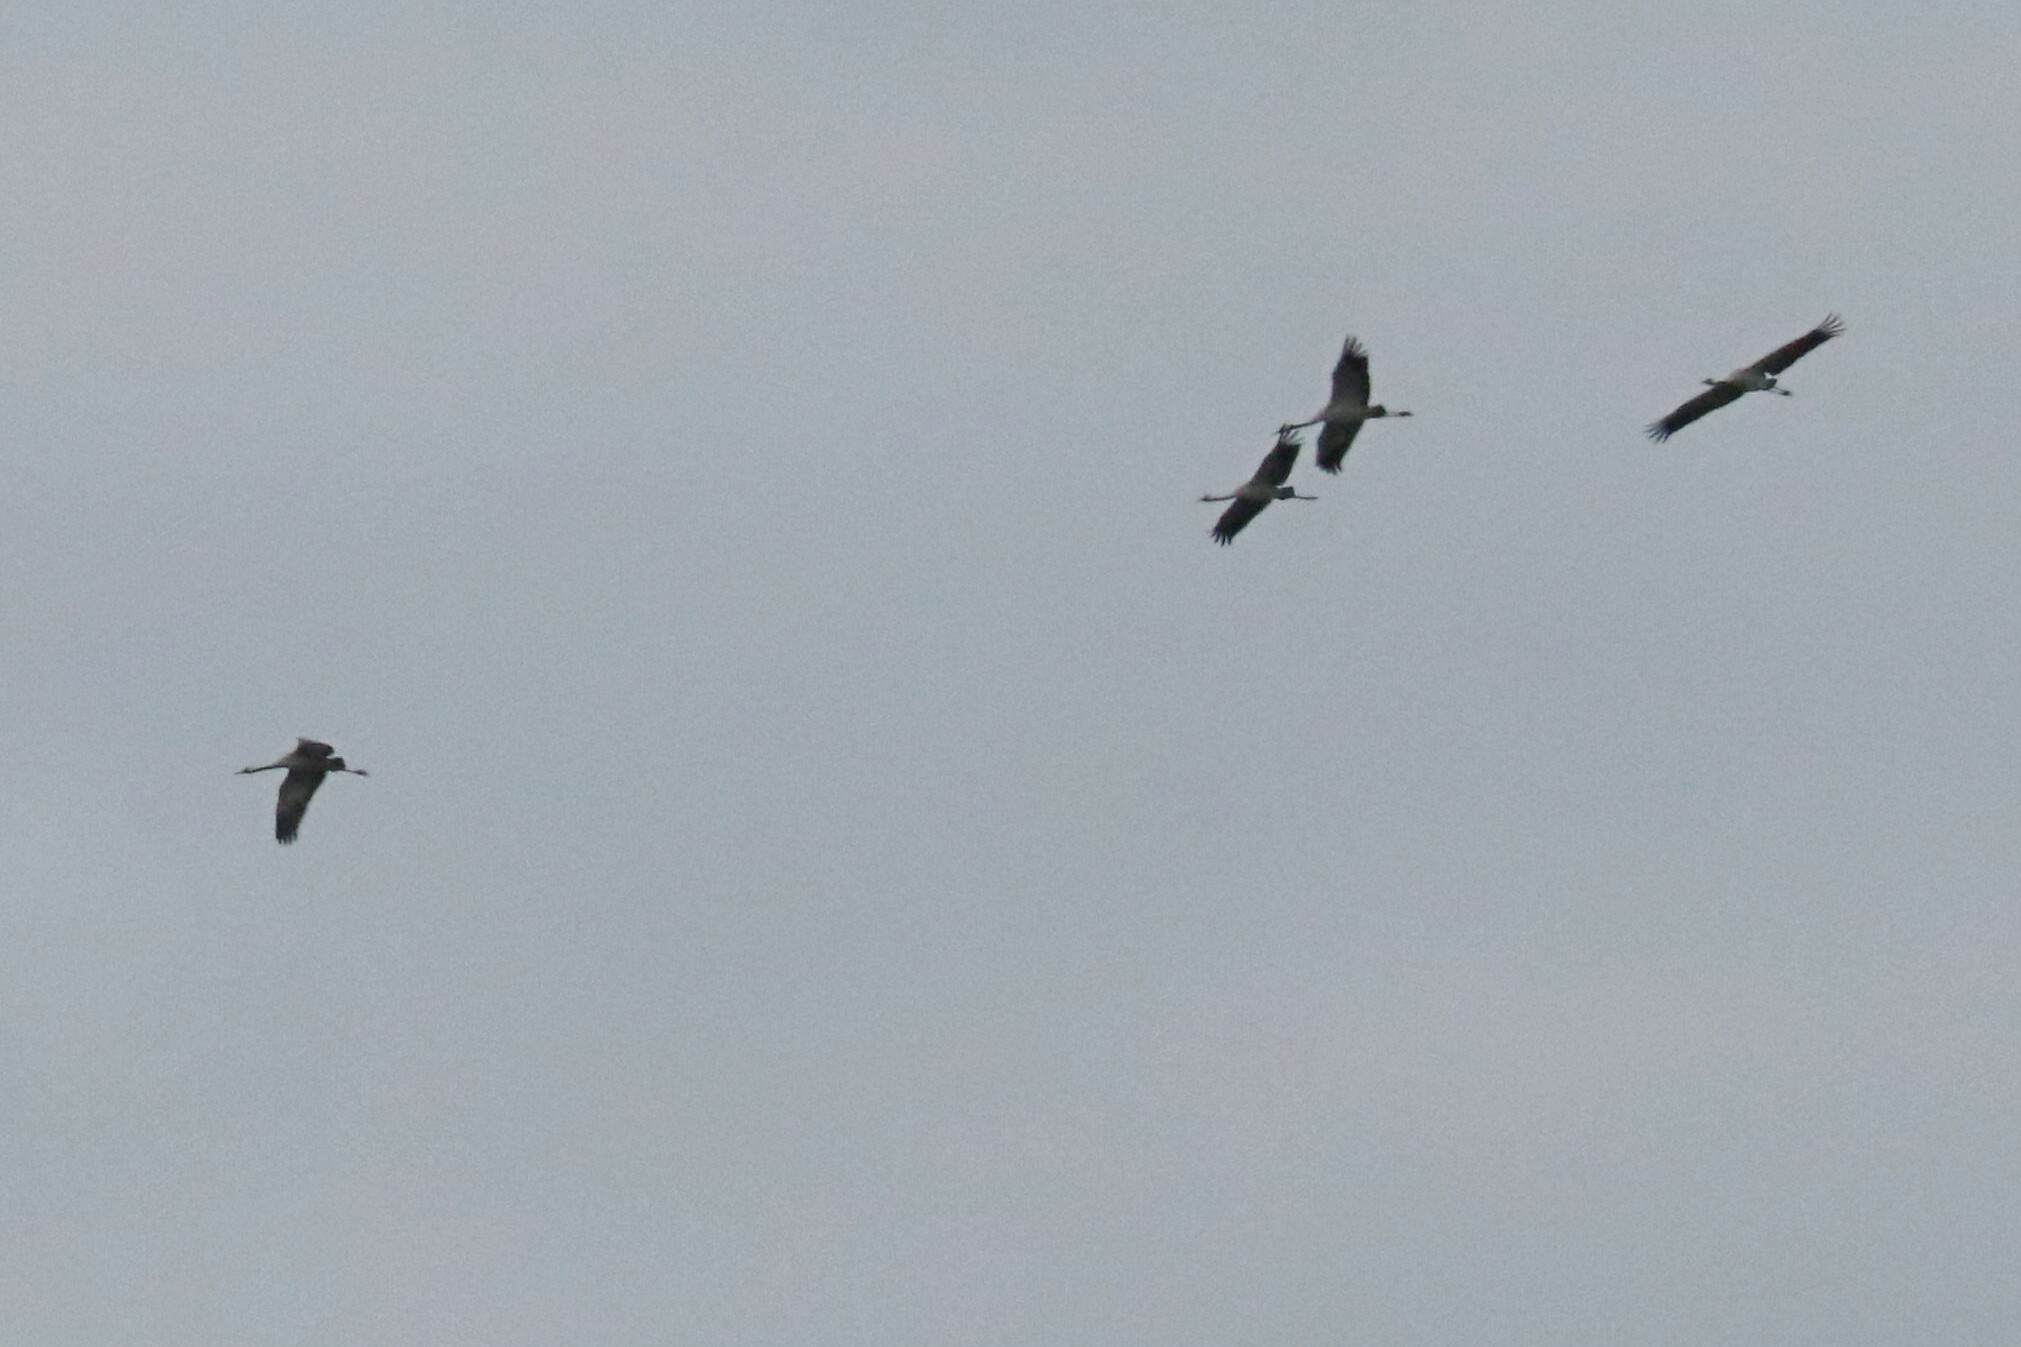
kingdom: Animalia
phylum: Chordata
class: Aves
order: Gruiformes
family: Gruidae
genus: Grus
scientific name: Grus grus
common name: Common crane
